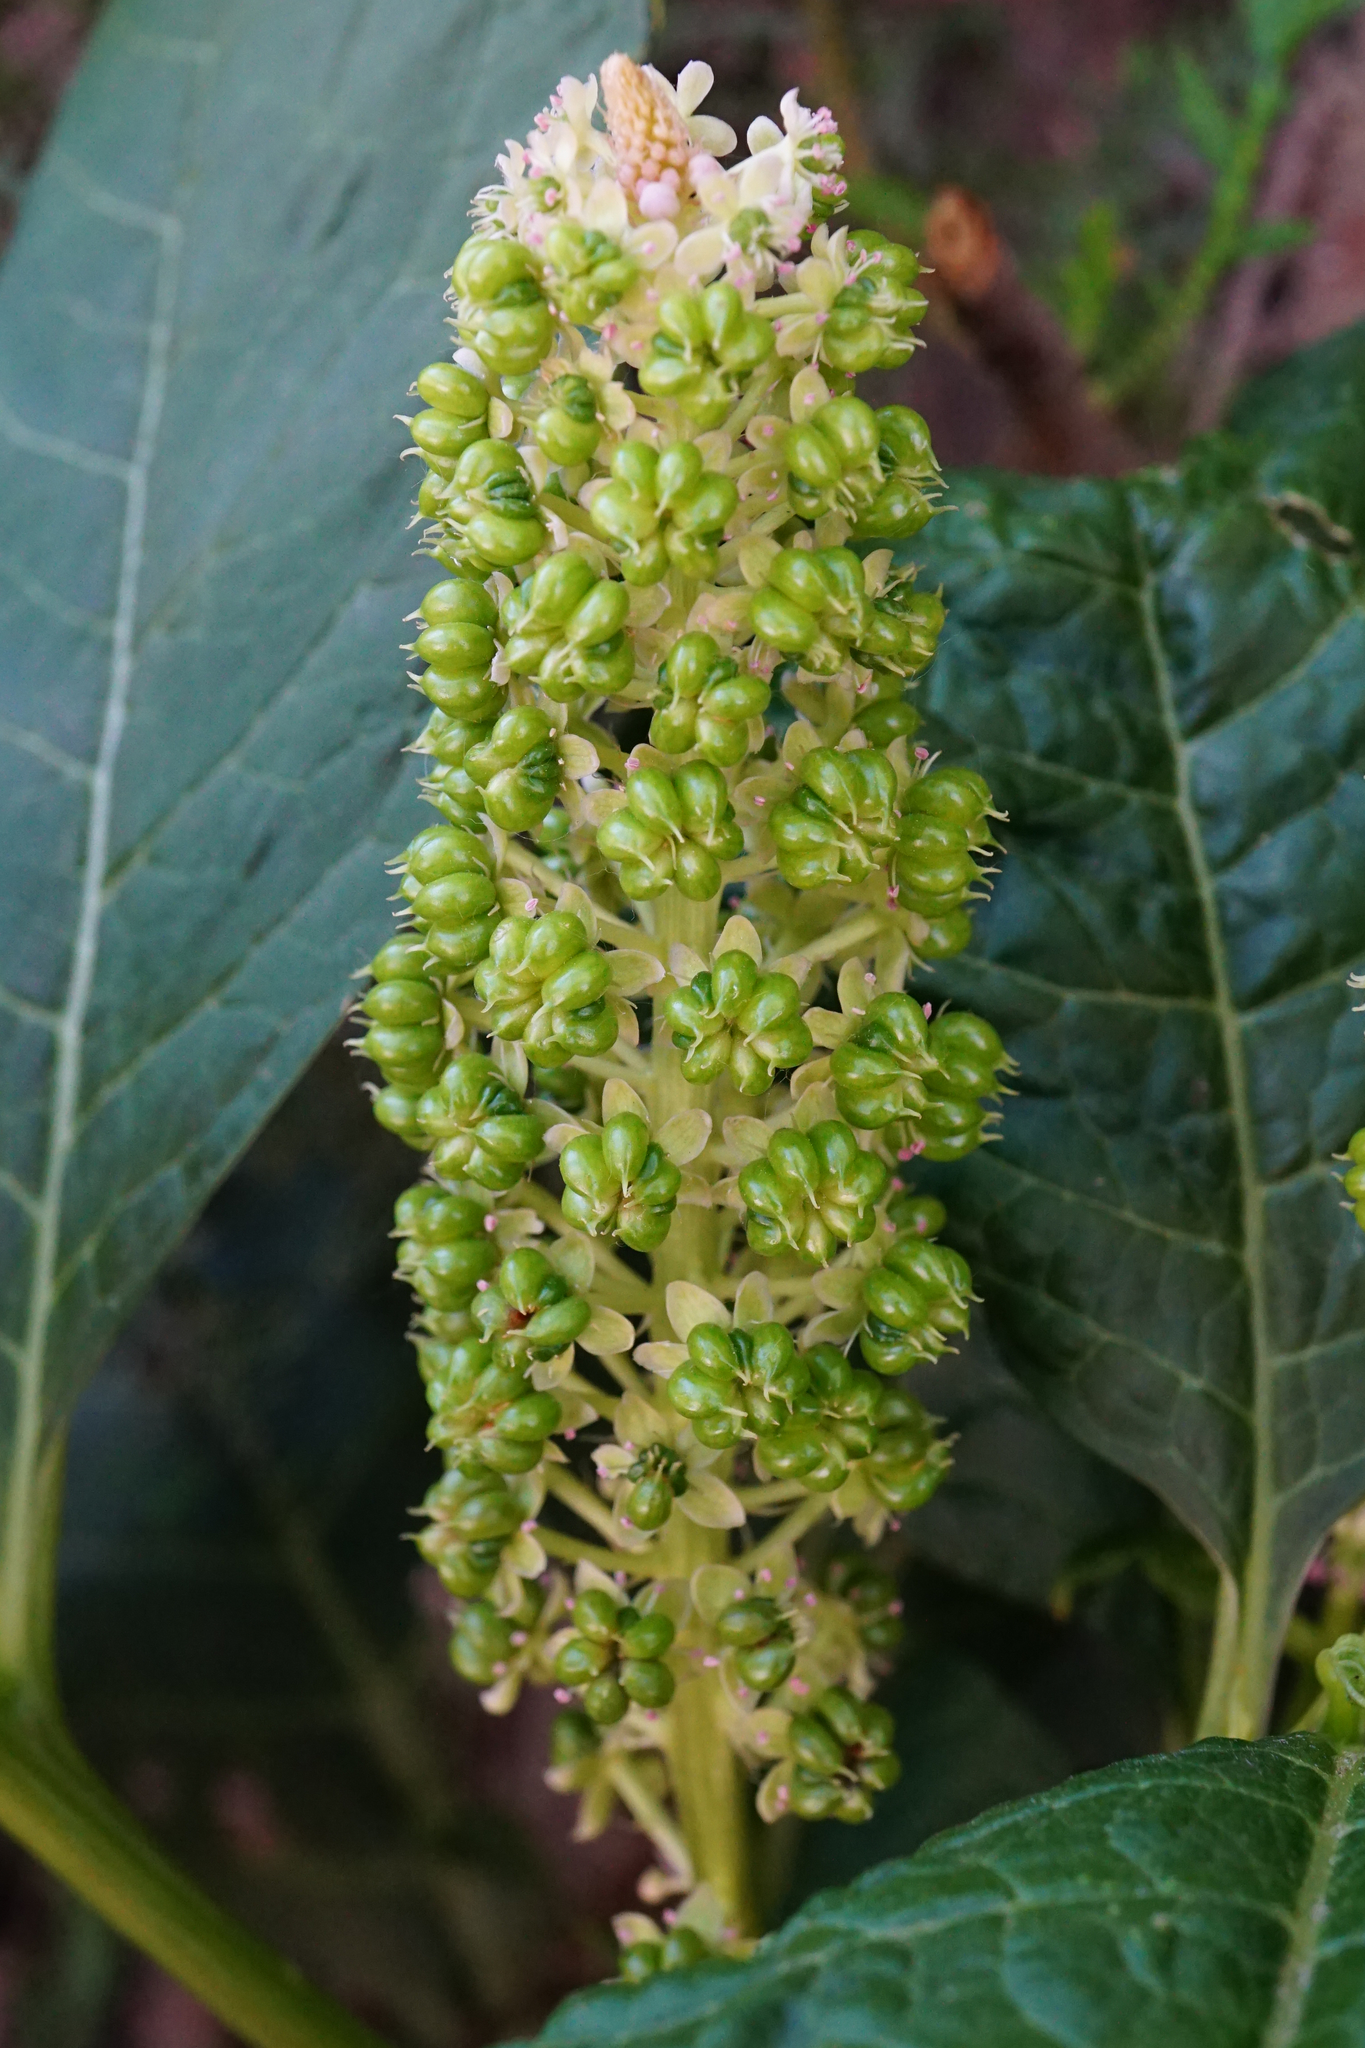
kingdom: Plantae
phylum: Tracheophyta
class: Magnoliopsida
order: Caryophyllales
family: Phytolaccaceae
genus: Phytolacca
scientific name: Phytolacca acinosa
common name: Indian pokeweed
